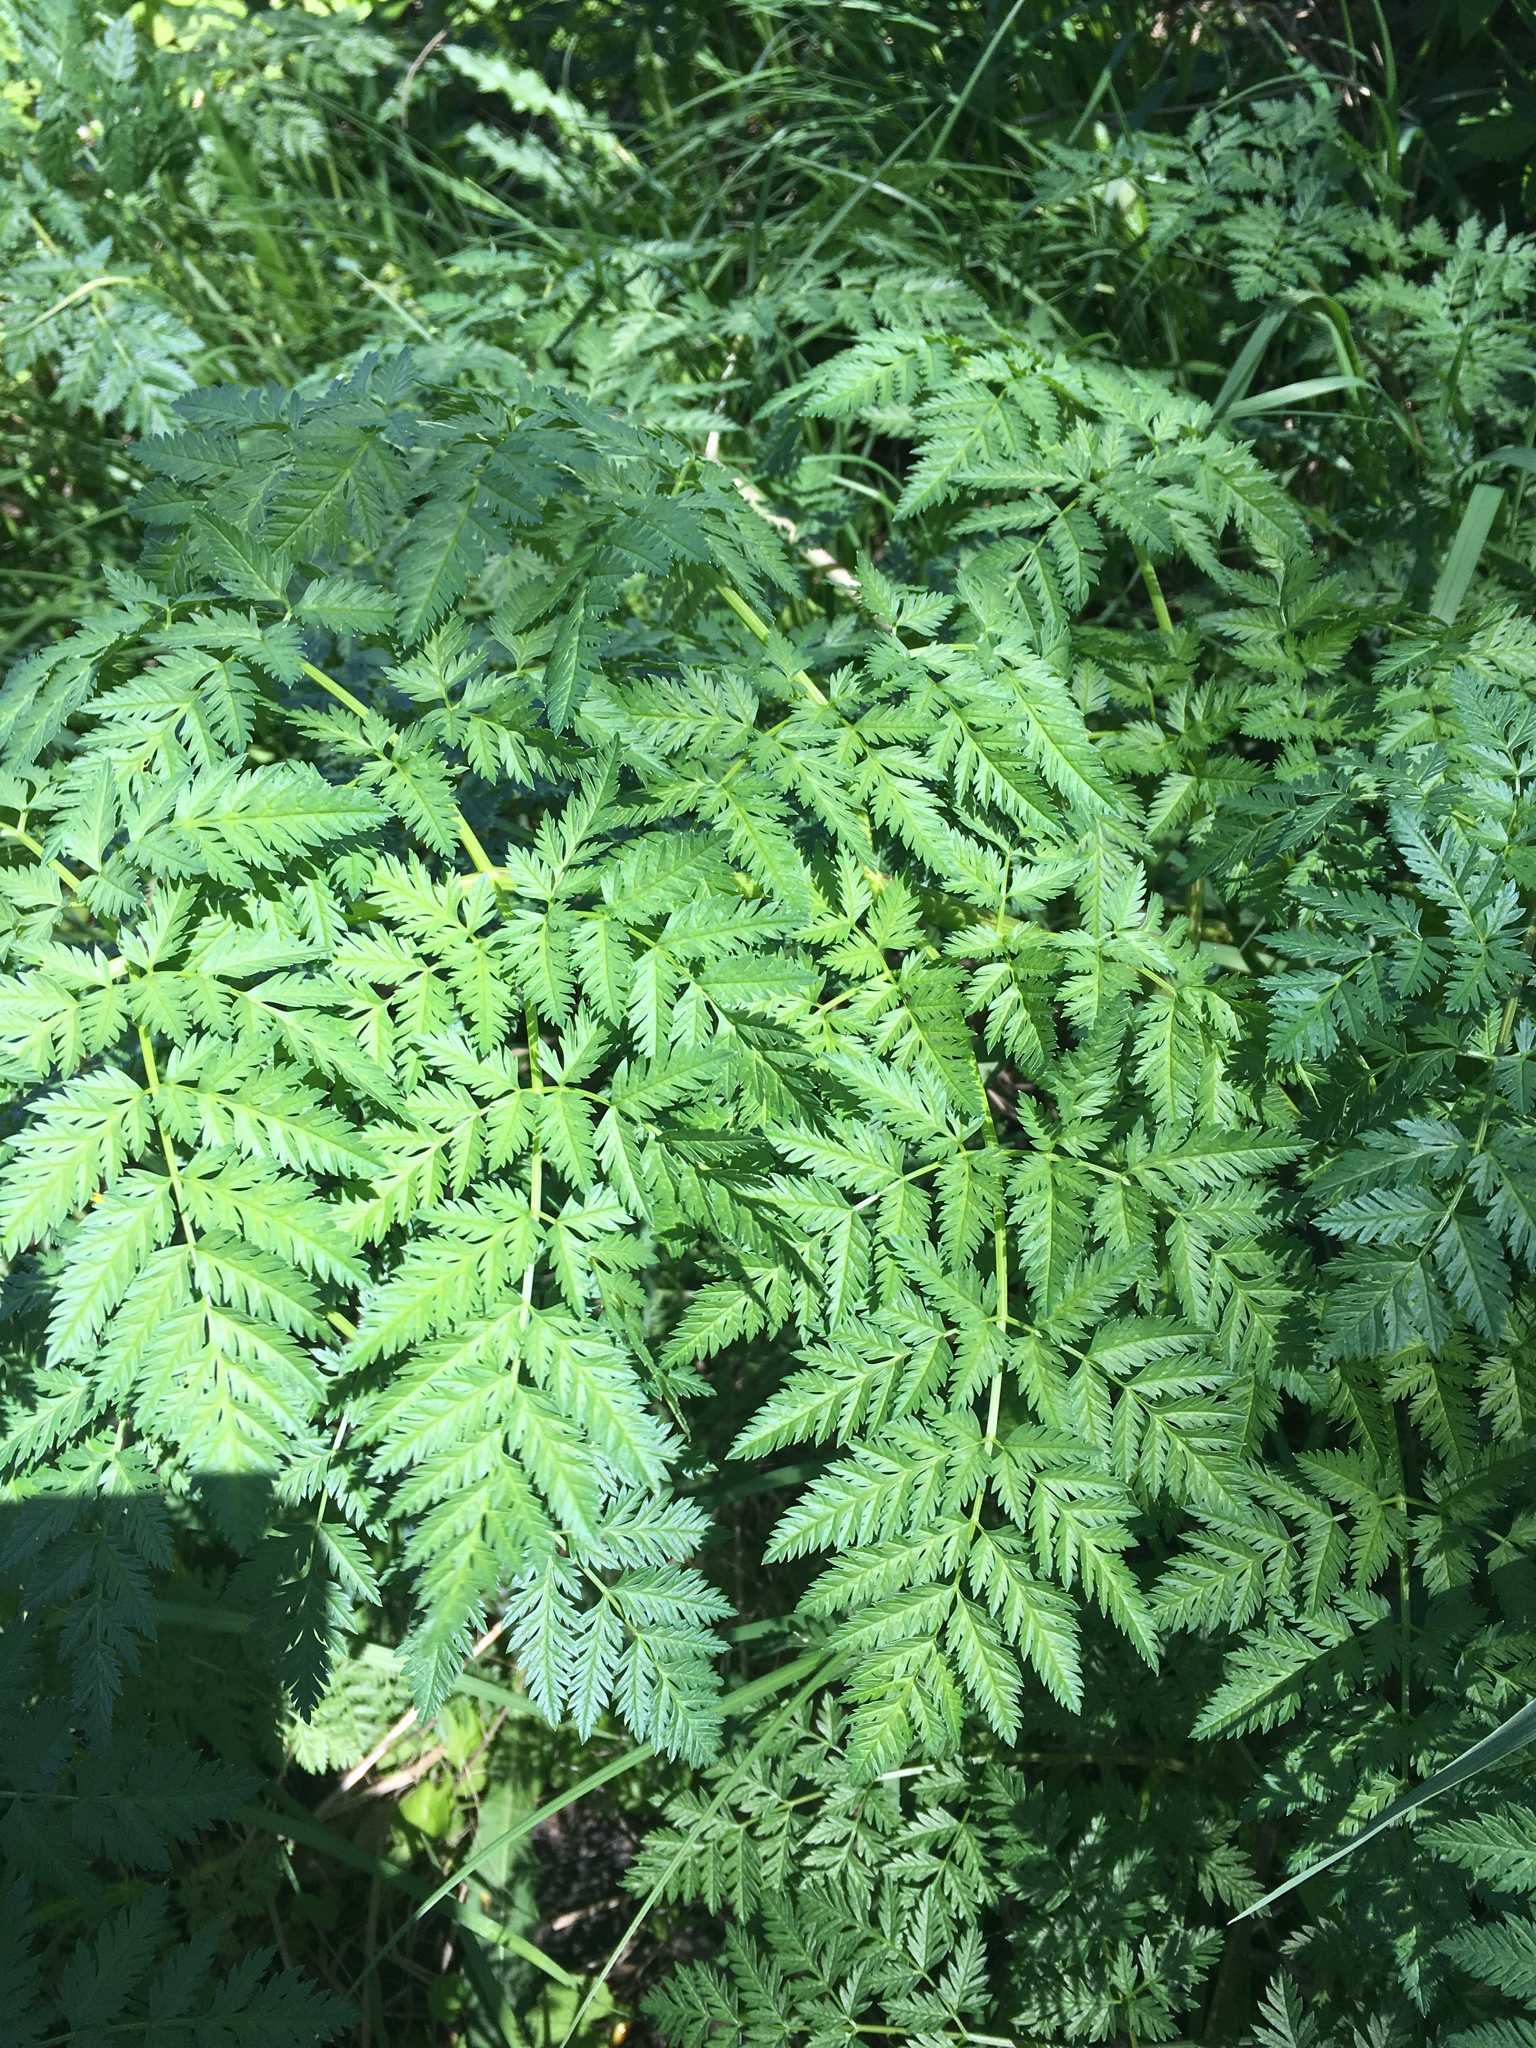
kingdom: Plantae
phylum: Tracheophyta
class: Magnoliopsida
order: Apiales
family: Apiaceae
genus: Conium
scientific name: Conium maculatum
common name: Hemlock
